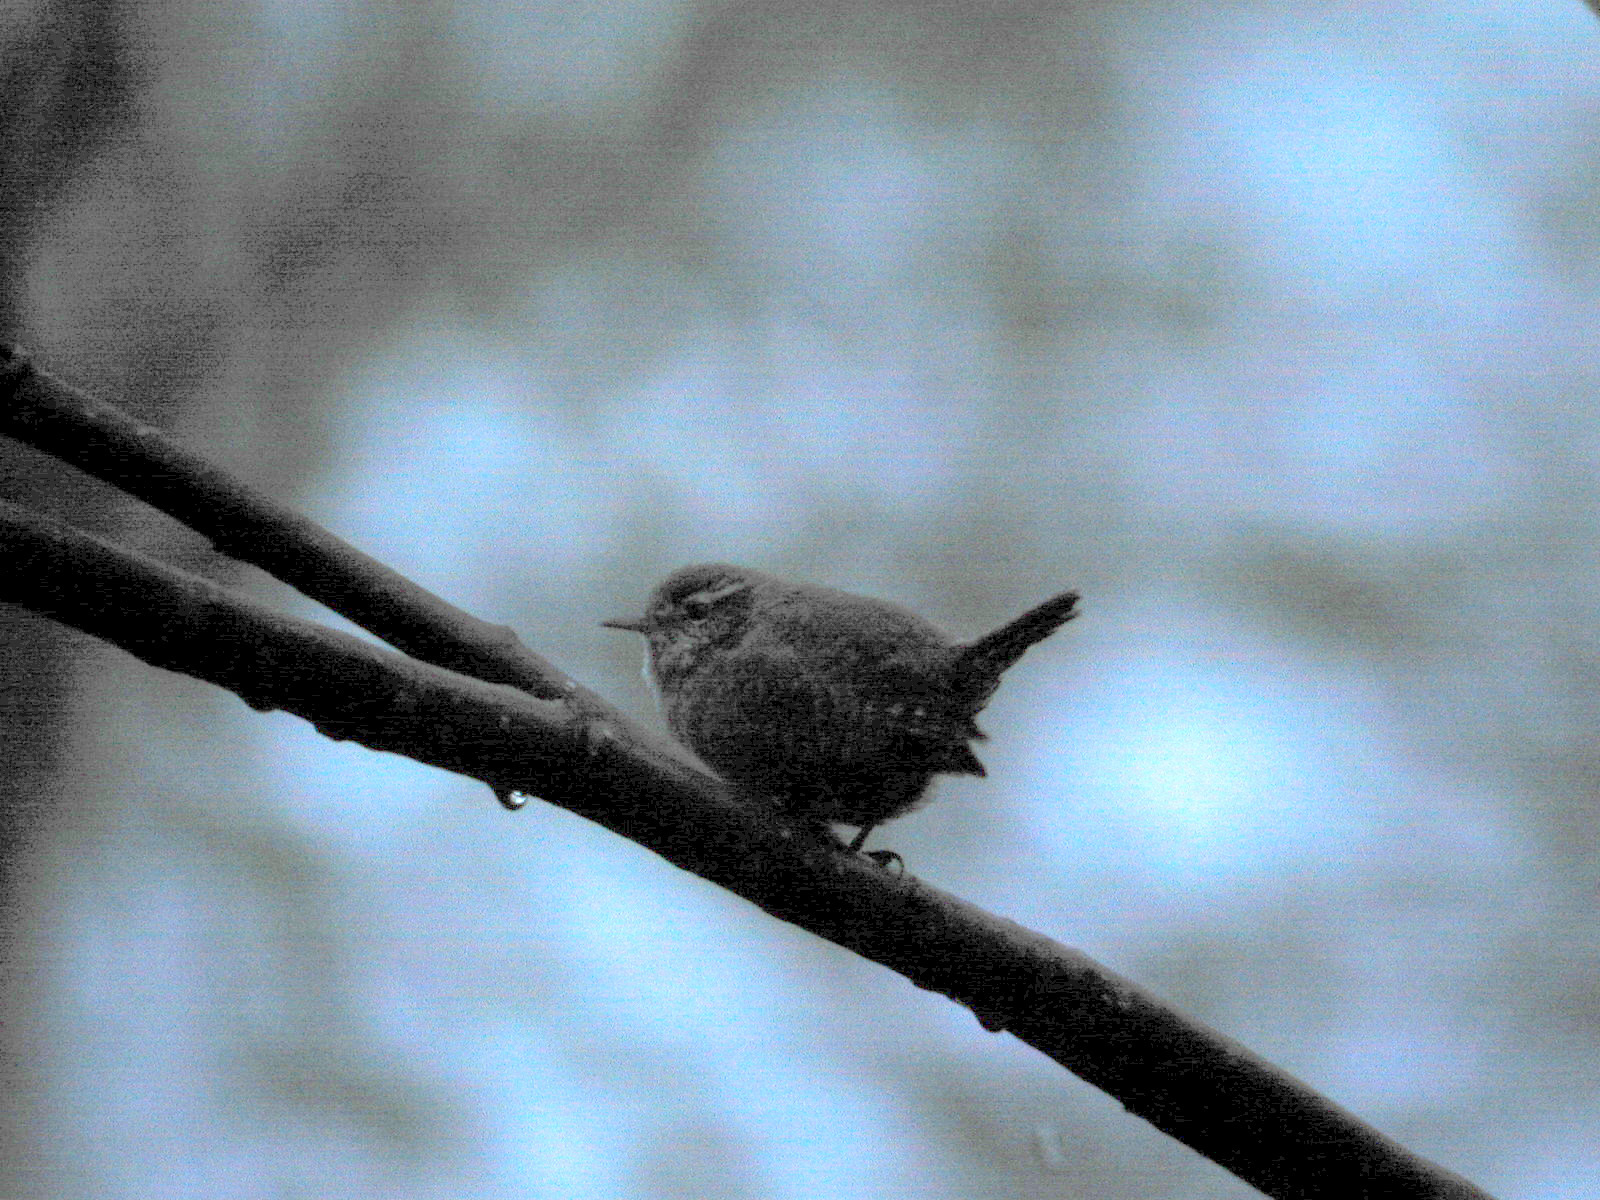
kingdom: Animalia
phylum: Chordata
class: Aves
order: Passeriformes
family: Troglodytidae
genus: Troglodytes
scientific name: Troglodytes troglodytes
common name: Eurasian wren
